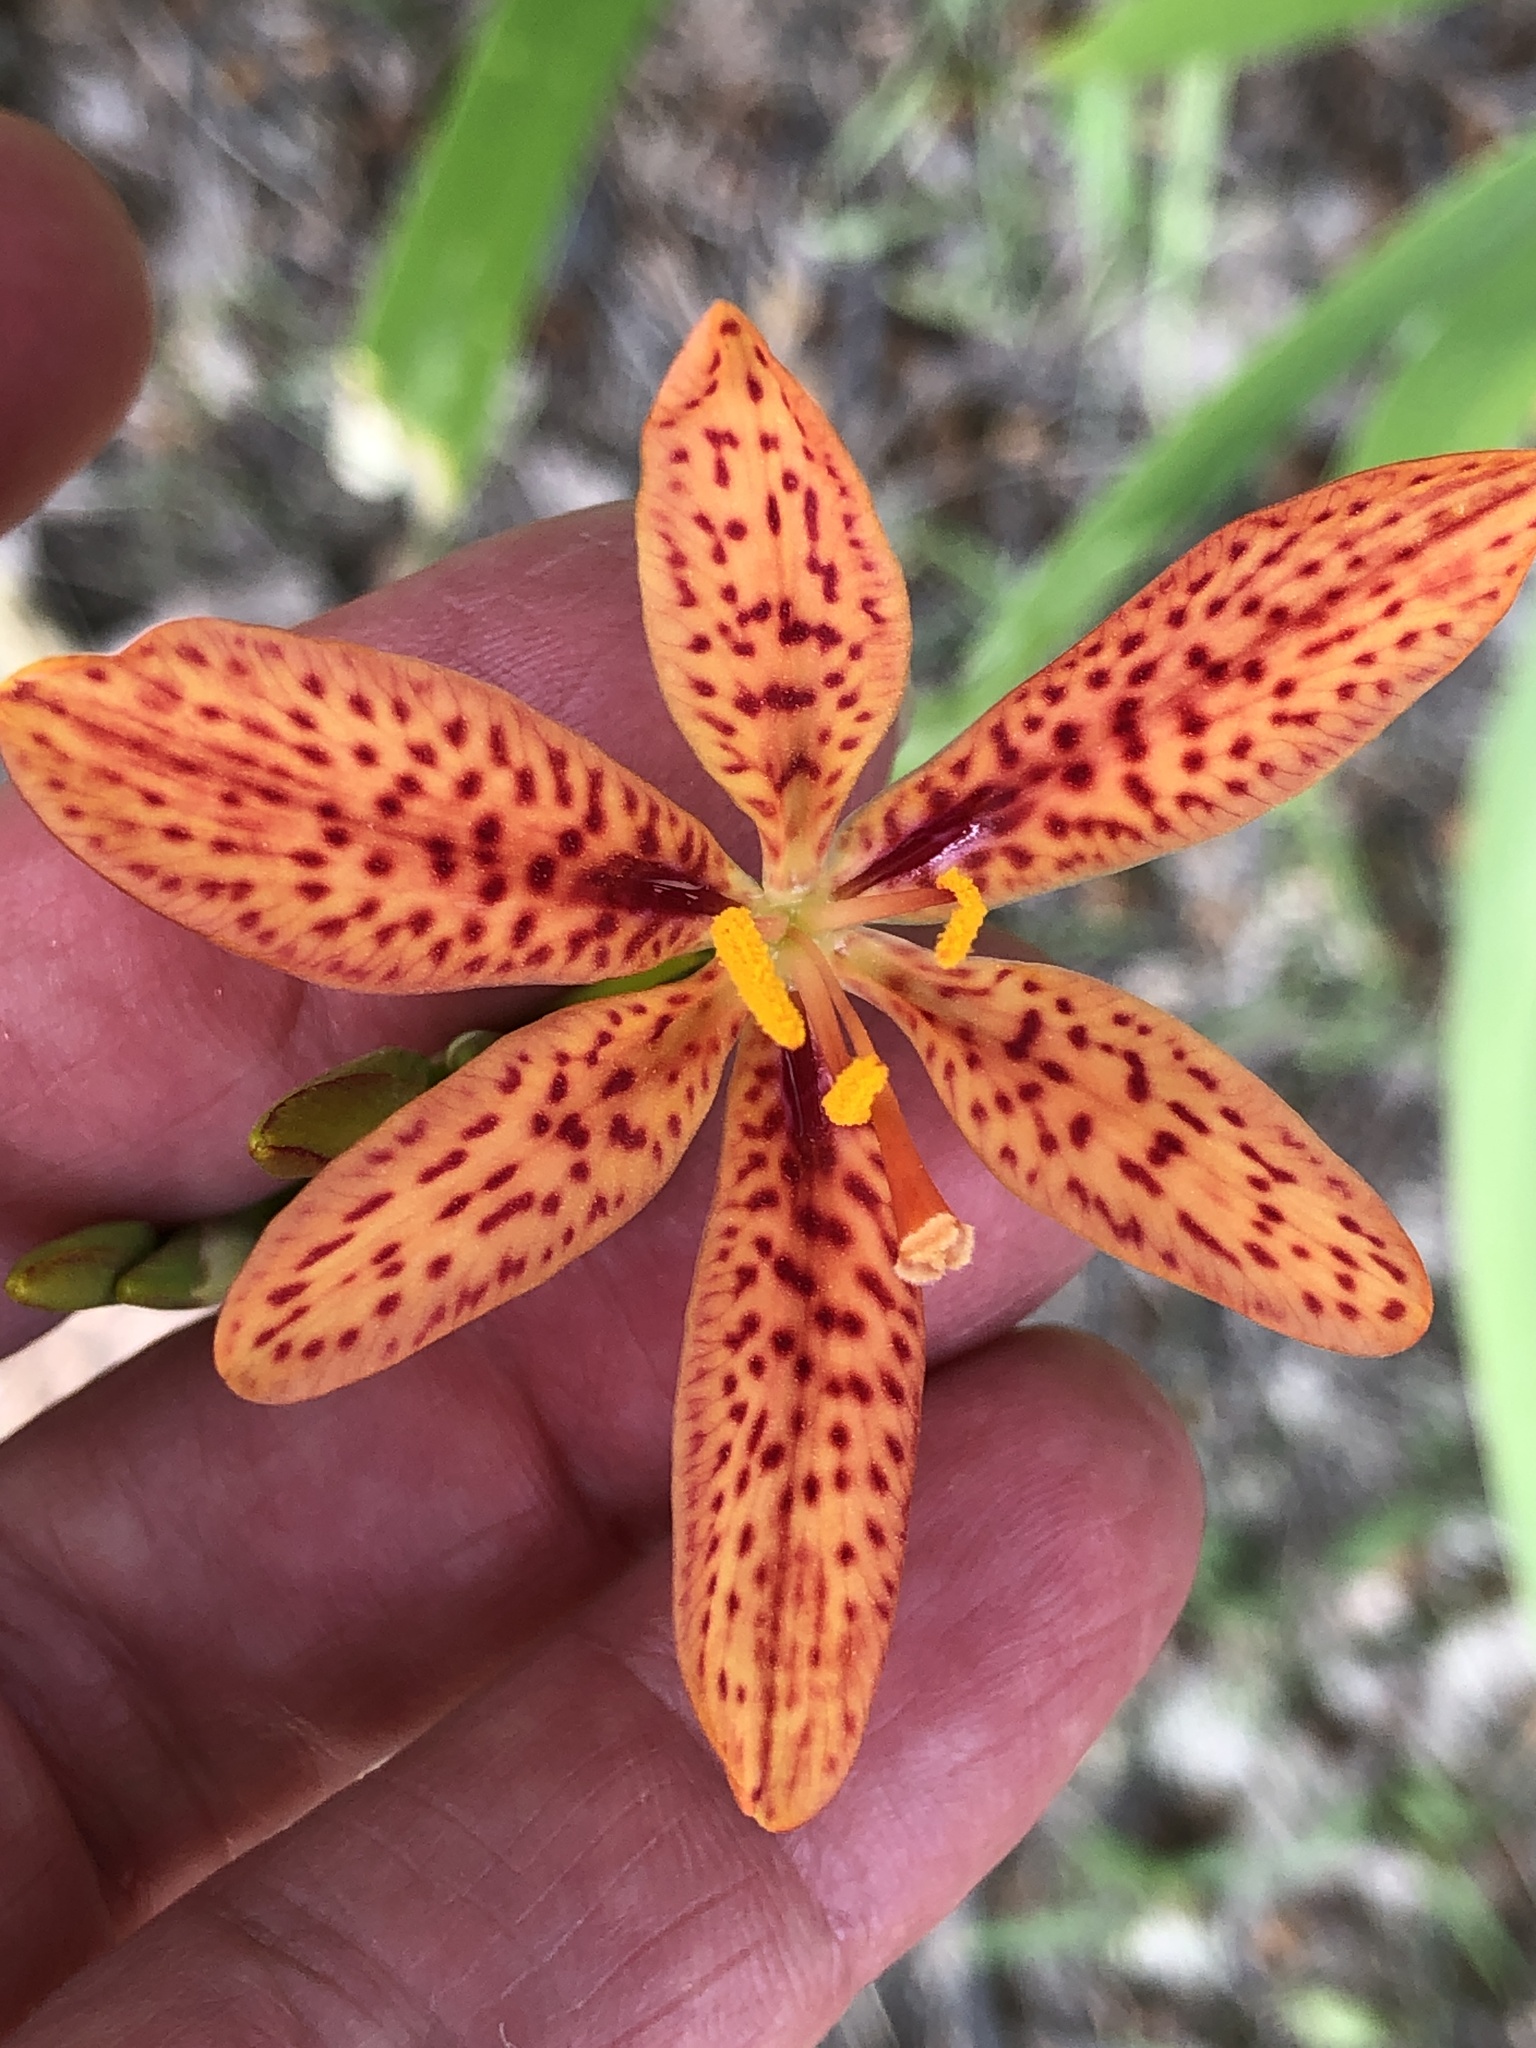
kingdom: Plantae
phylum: Tracheophyta
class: Liliopsida
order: Asparagales
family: Iridaceae
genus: Iris
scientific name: Iris domestica
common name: Belamcanda
